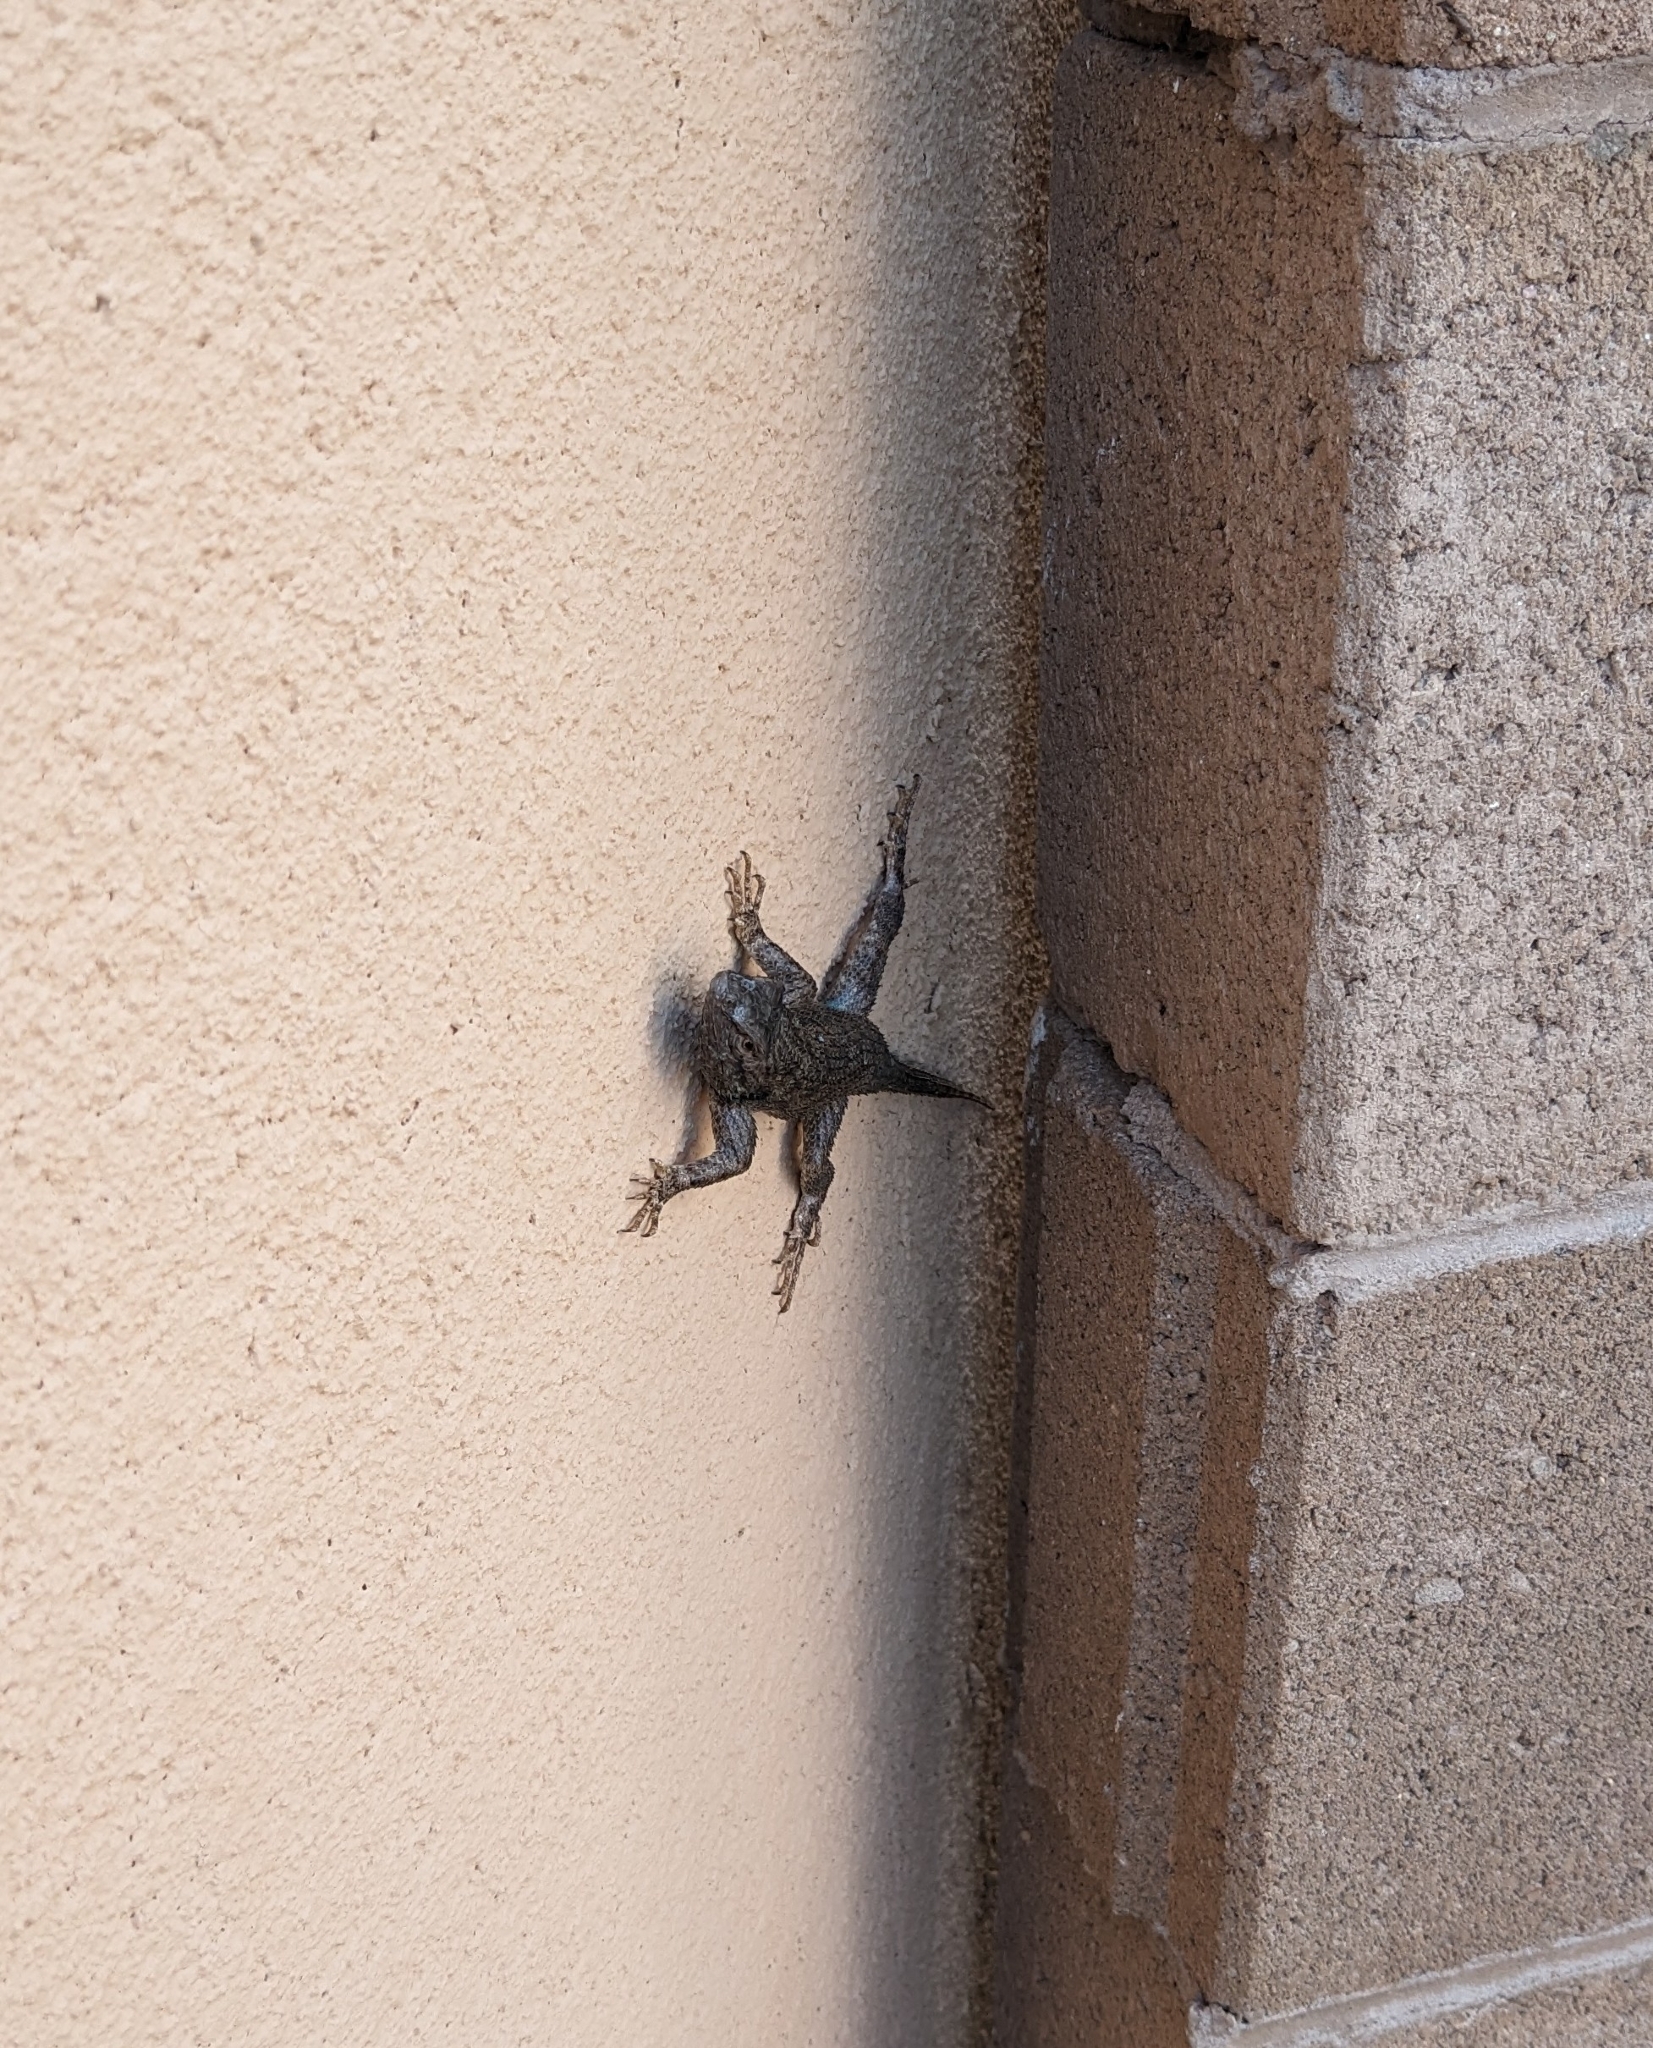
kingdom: Animalia
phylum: Chordata
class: Squamata
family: Phrynosomatidae
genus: Sceloporus
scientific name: Sceloporus clarkii
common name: Clark's spiny lizard
